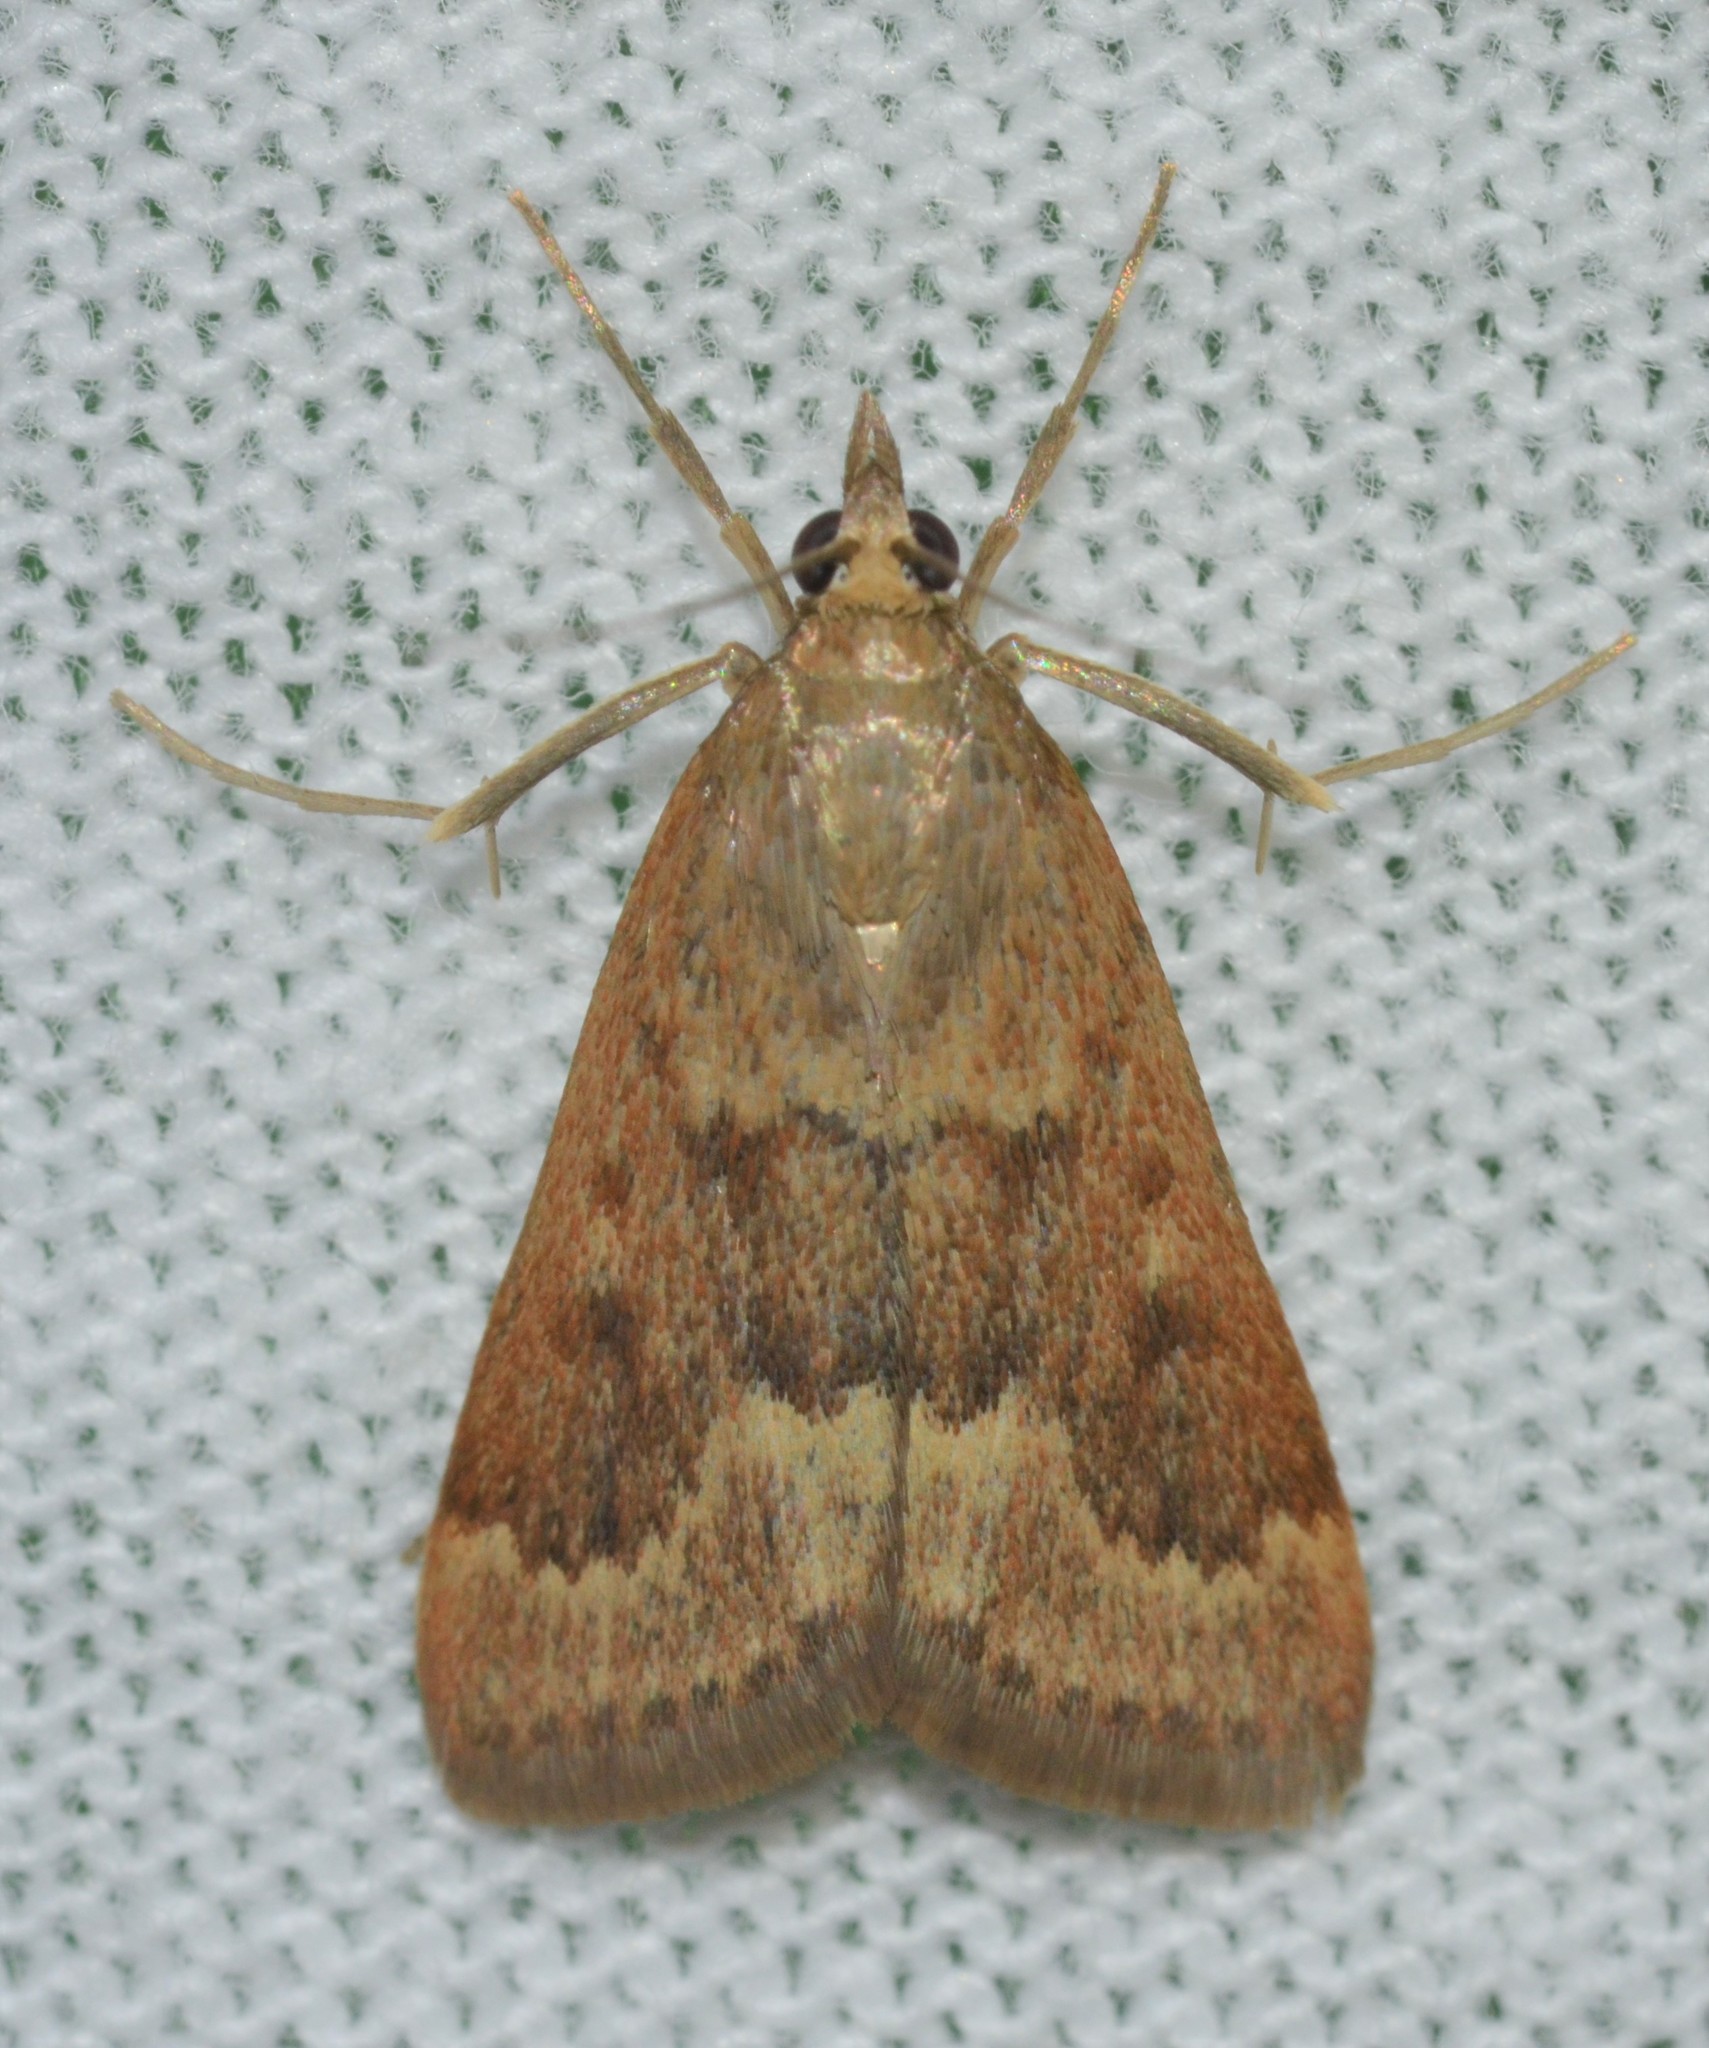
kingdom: Animalia
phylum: Arthropoda
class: Insecta
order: Lepidoptera
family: Crambidae
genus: Achyra
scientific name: Achyra rantalis
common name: Garden webworm
